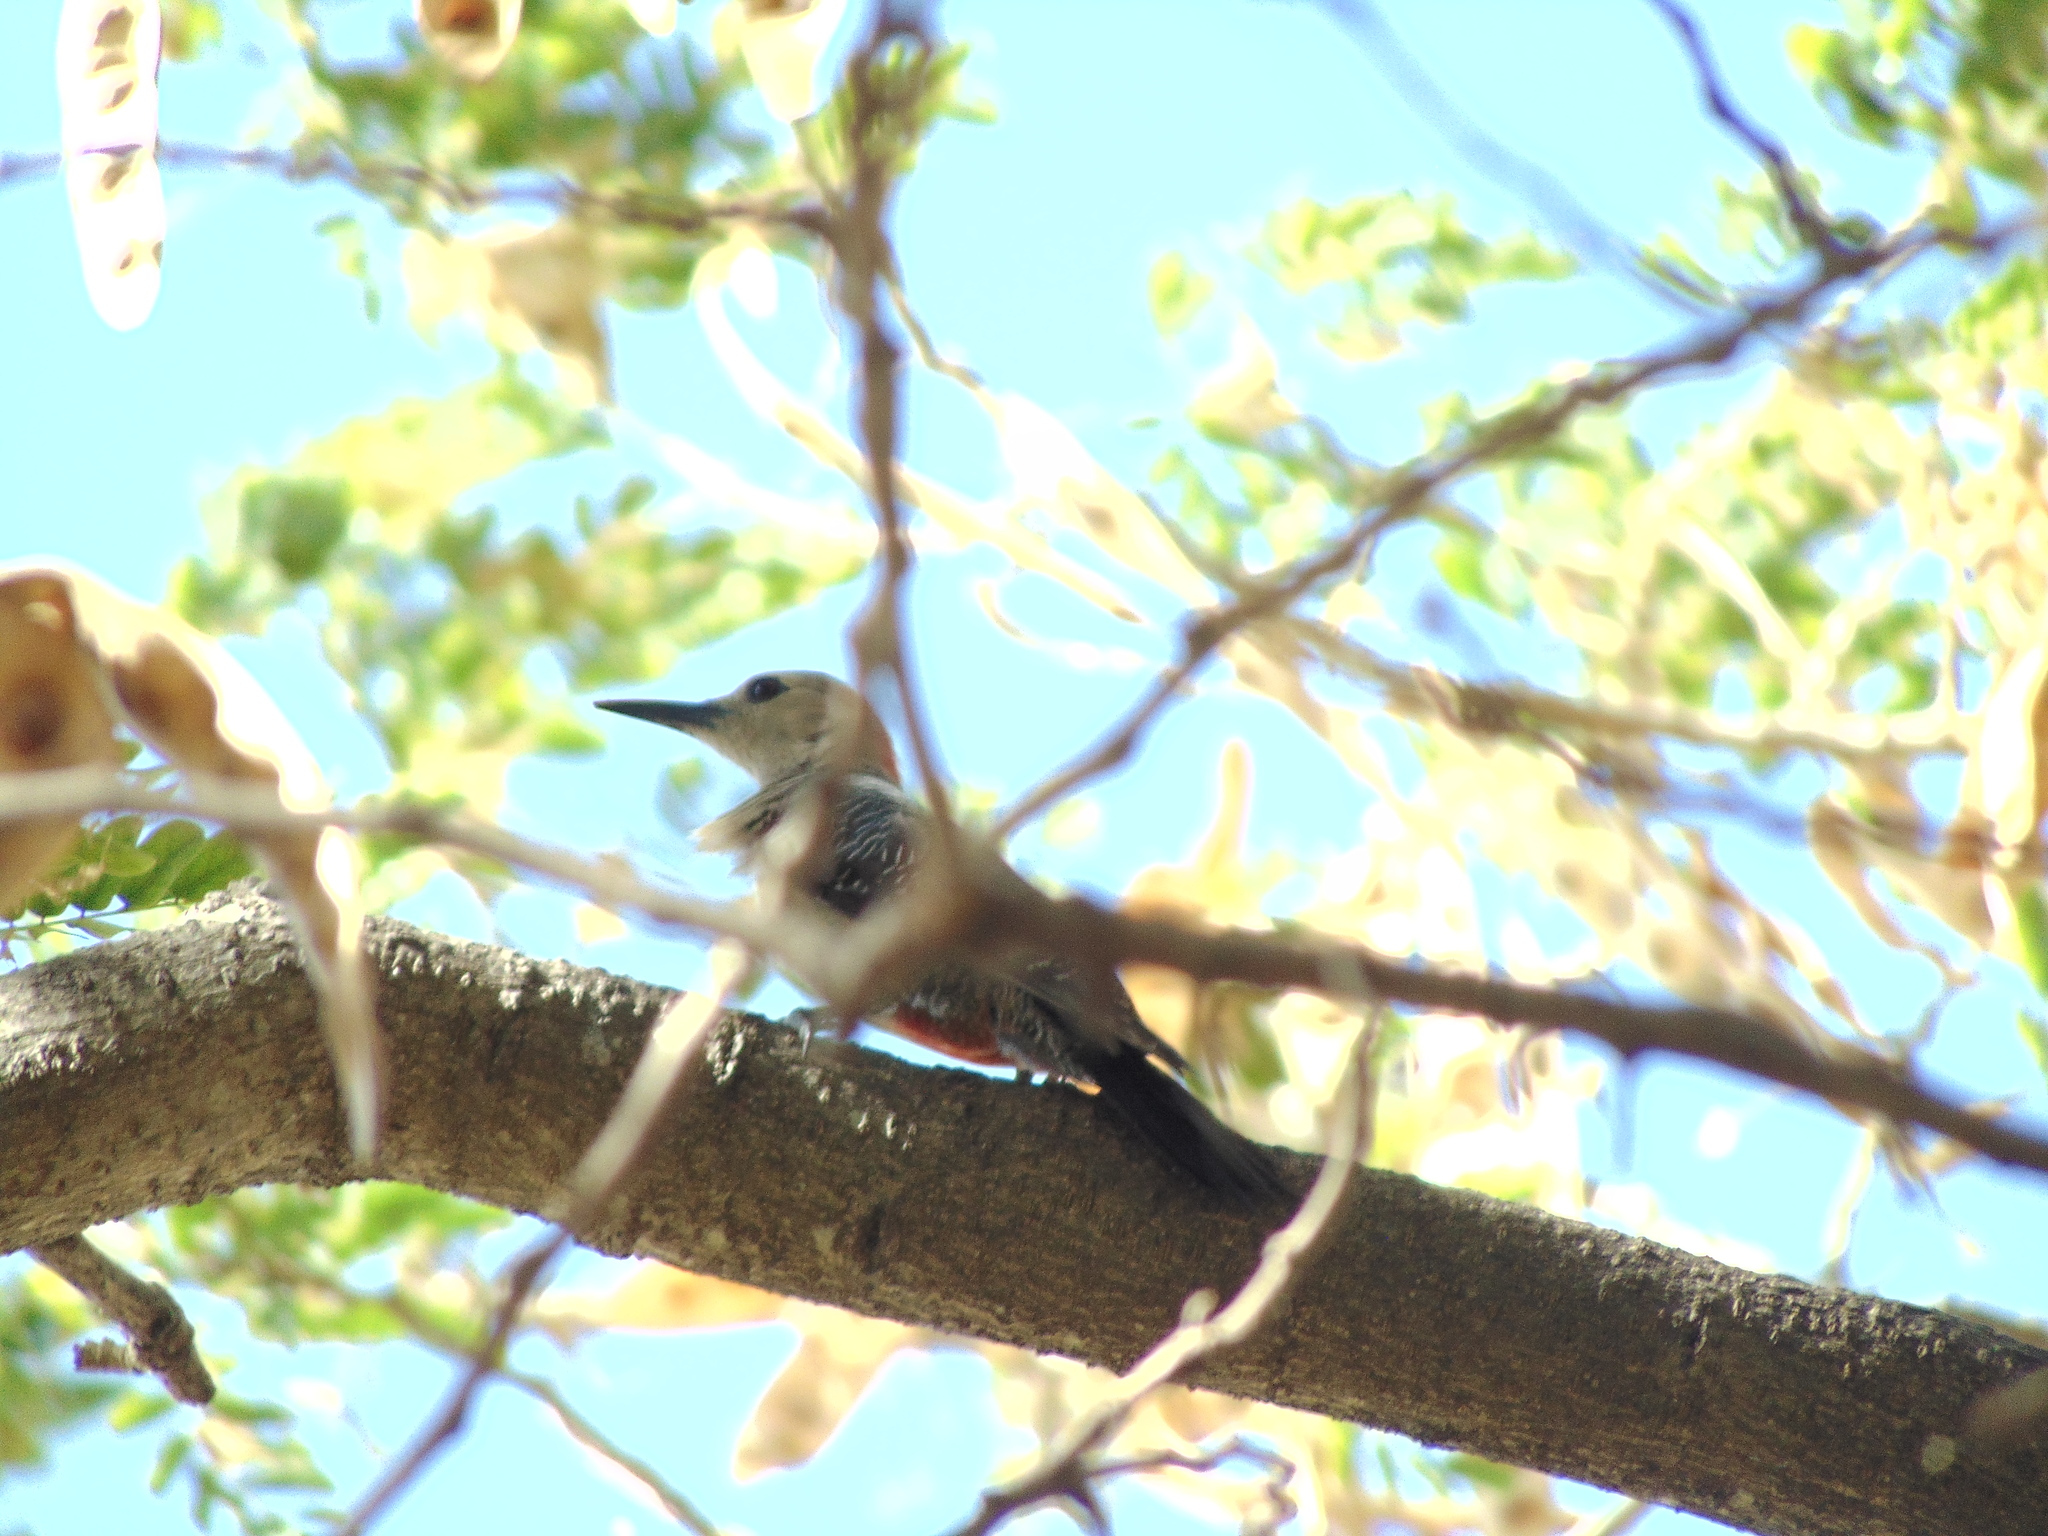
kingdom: Animalia
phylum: Chordata
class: Aves
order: Piciformes
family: Picidae
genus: Melanerpes
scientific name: Melanerpes aurifrons
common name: Golden-fronted woodpecker
